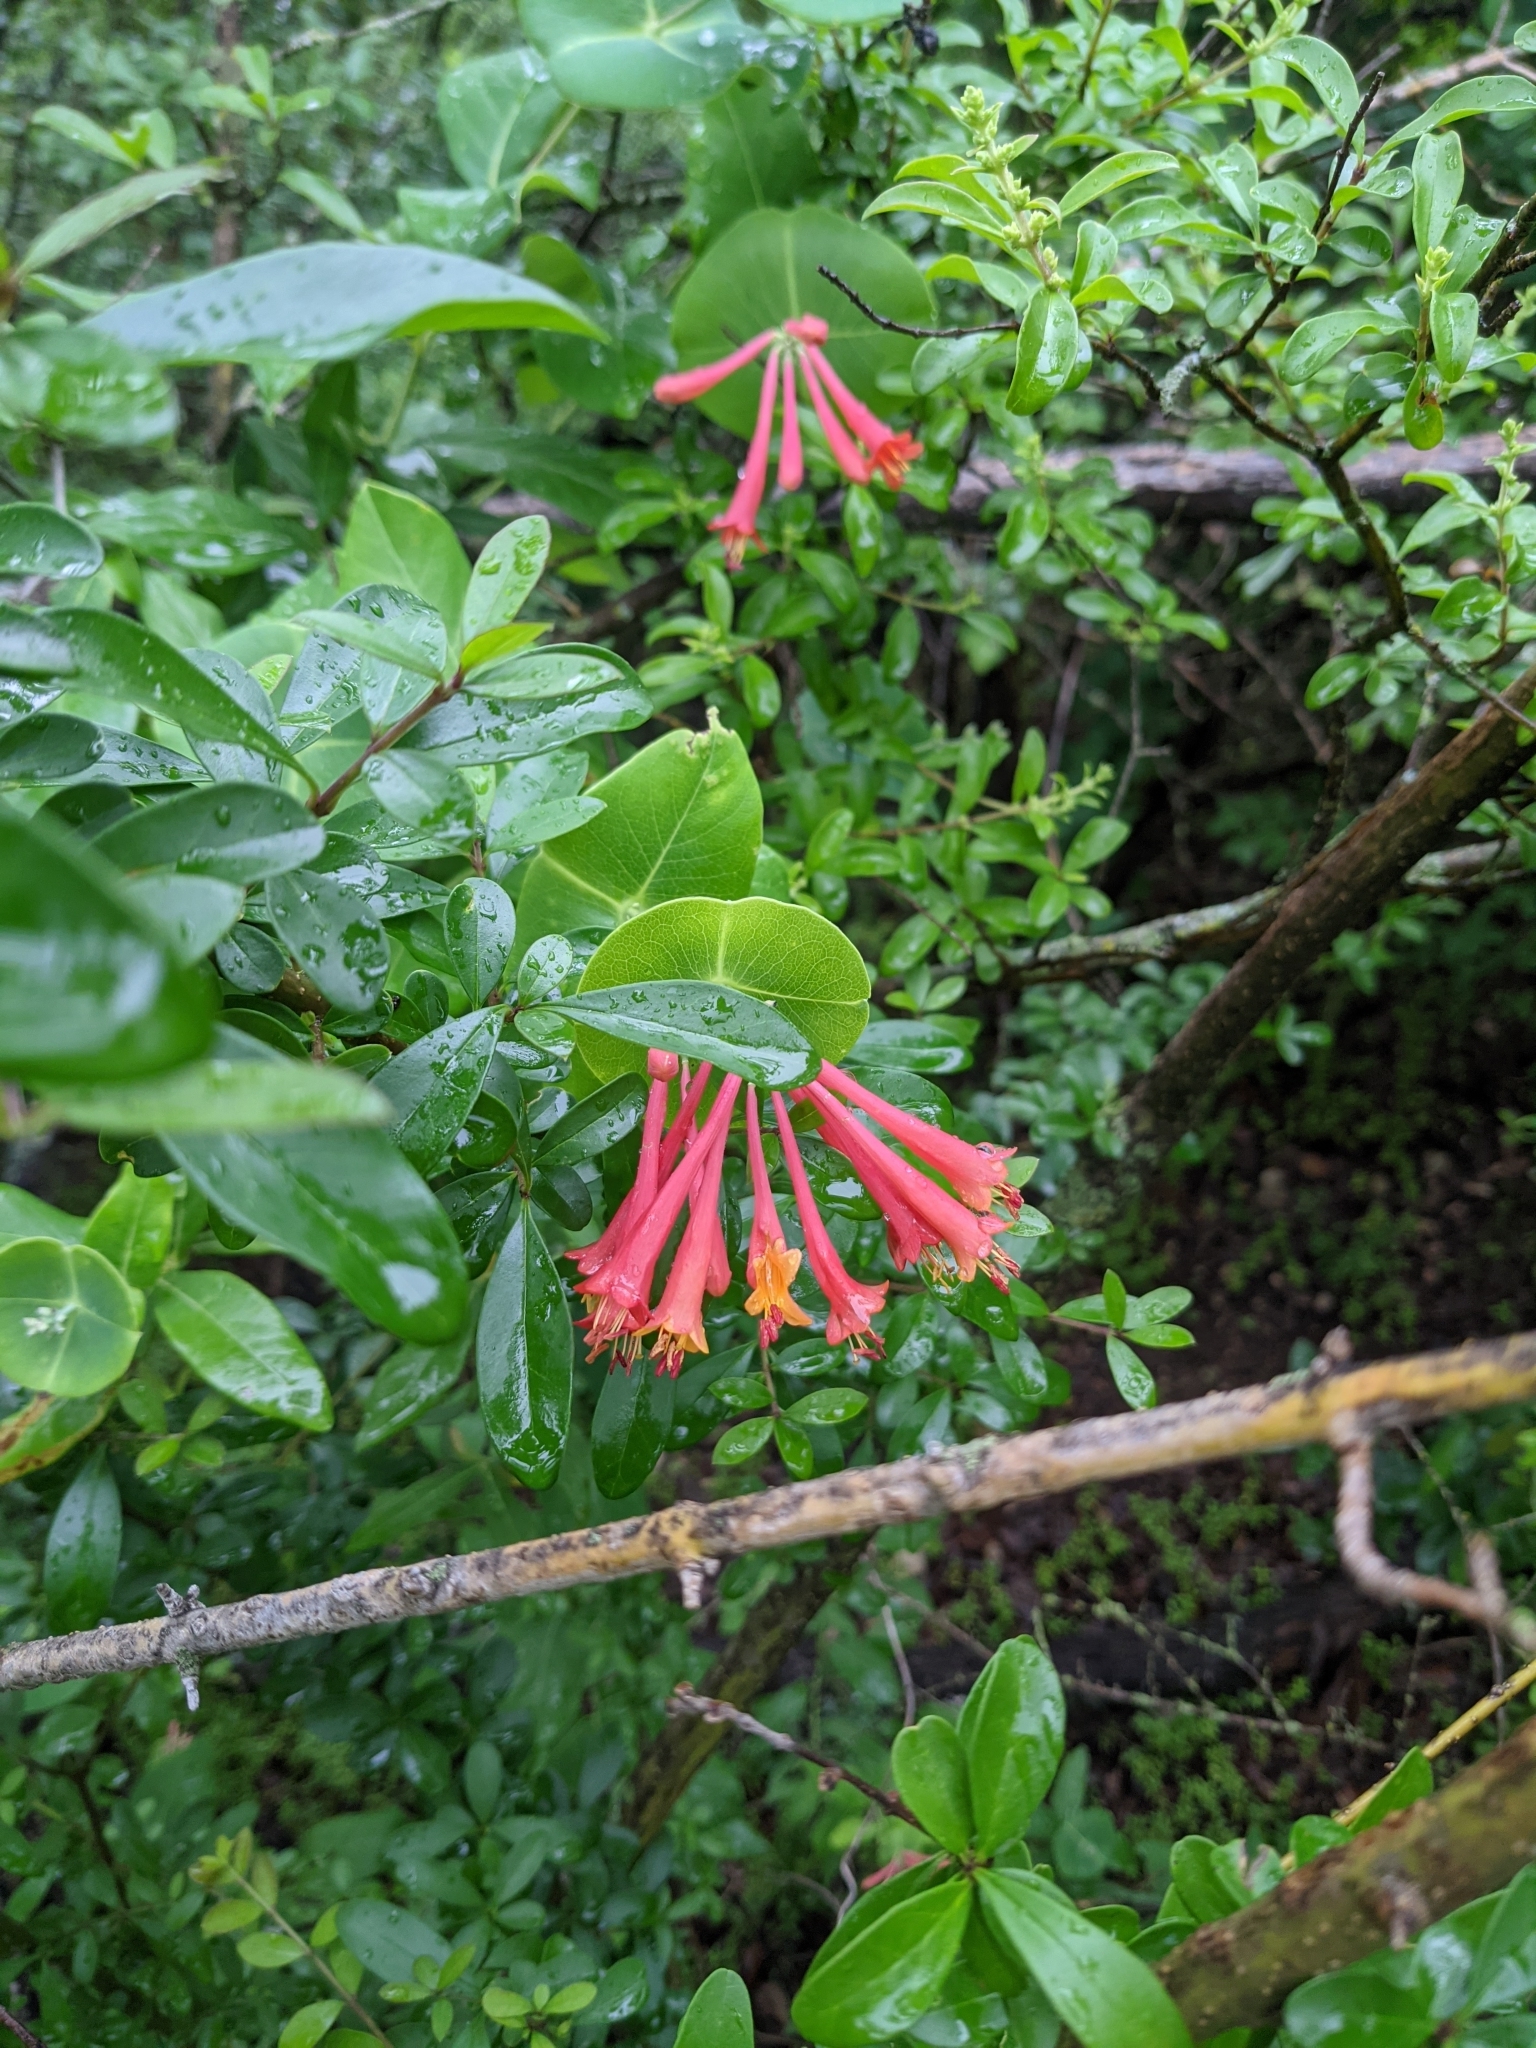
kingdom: Plantae
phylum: Tracheophyta
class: Magnoliopsida
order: Dipsacales
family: Caprifoliaceae
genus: Lonicera
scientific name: Lonicera sempervirens
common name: Coral honeysuckle
